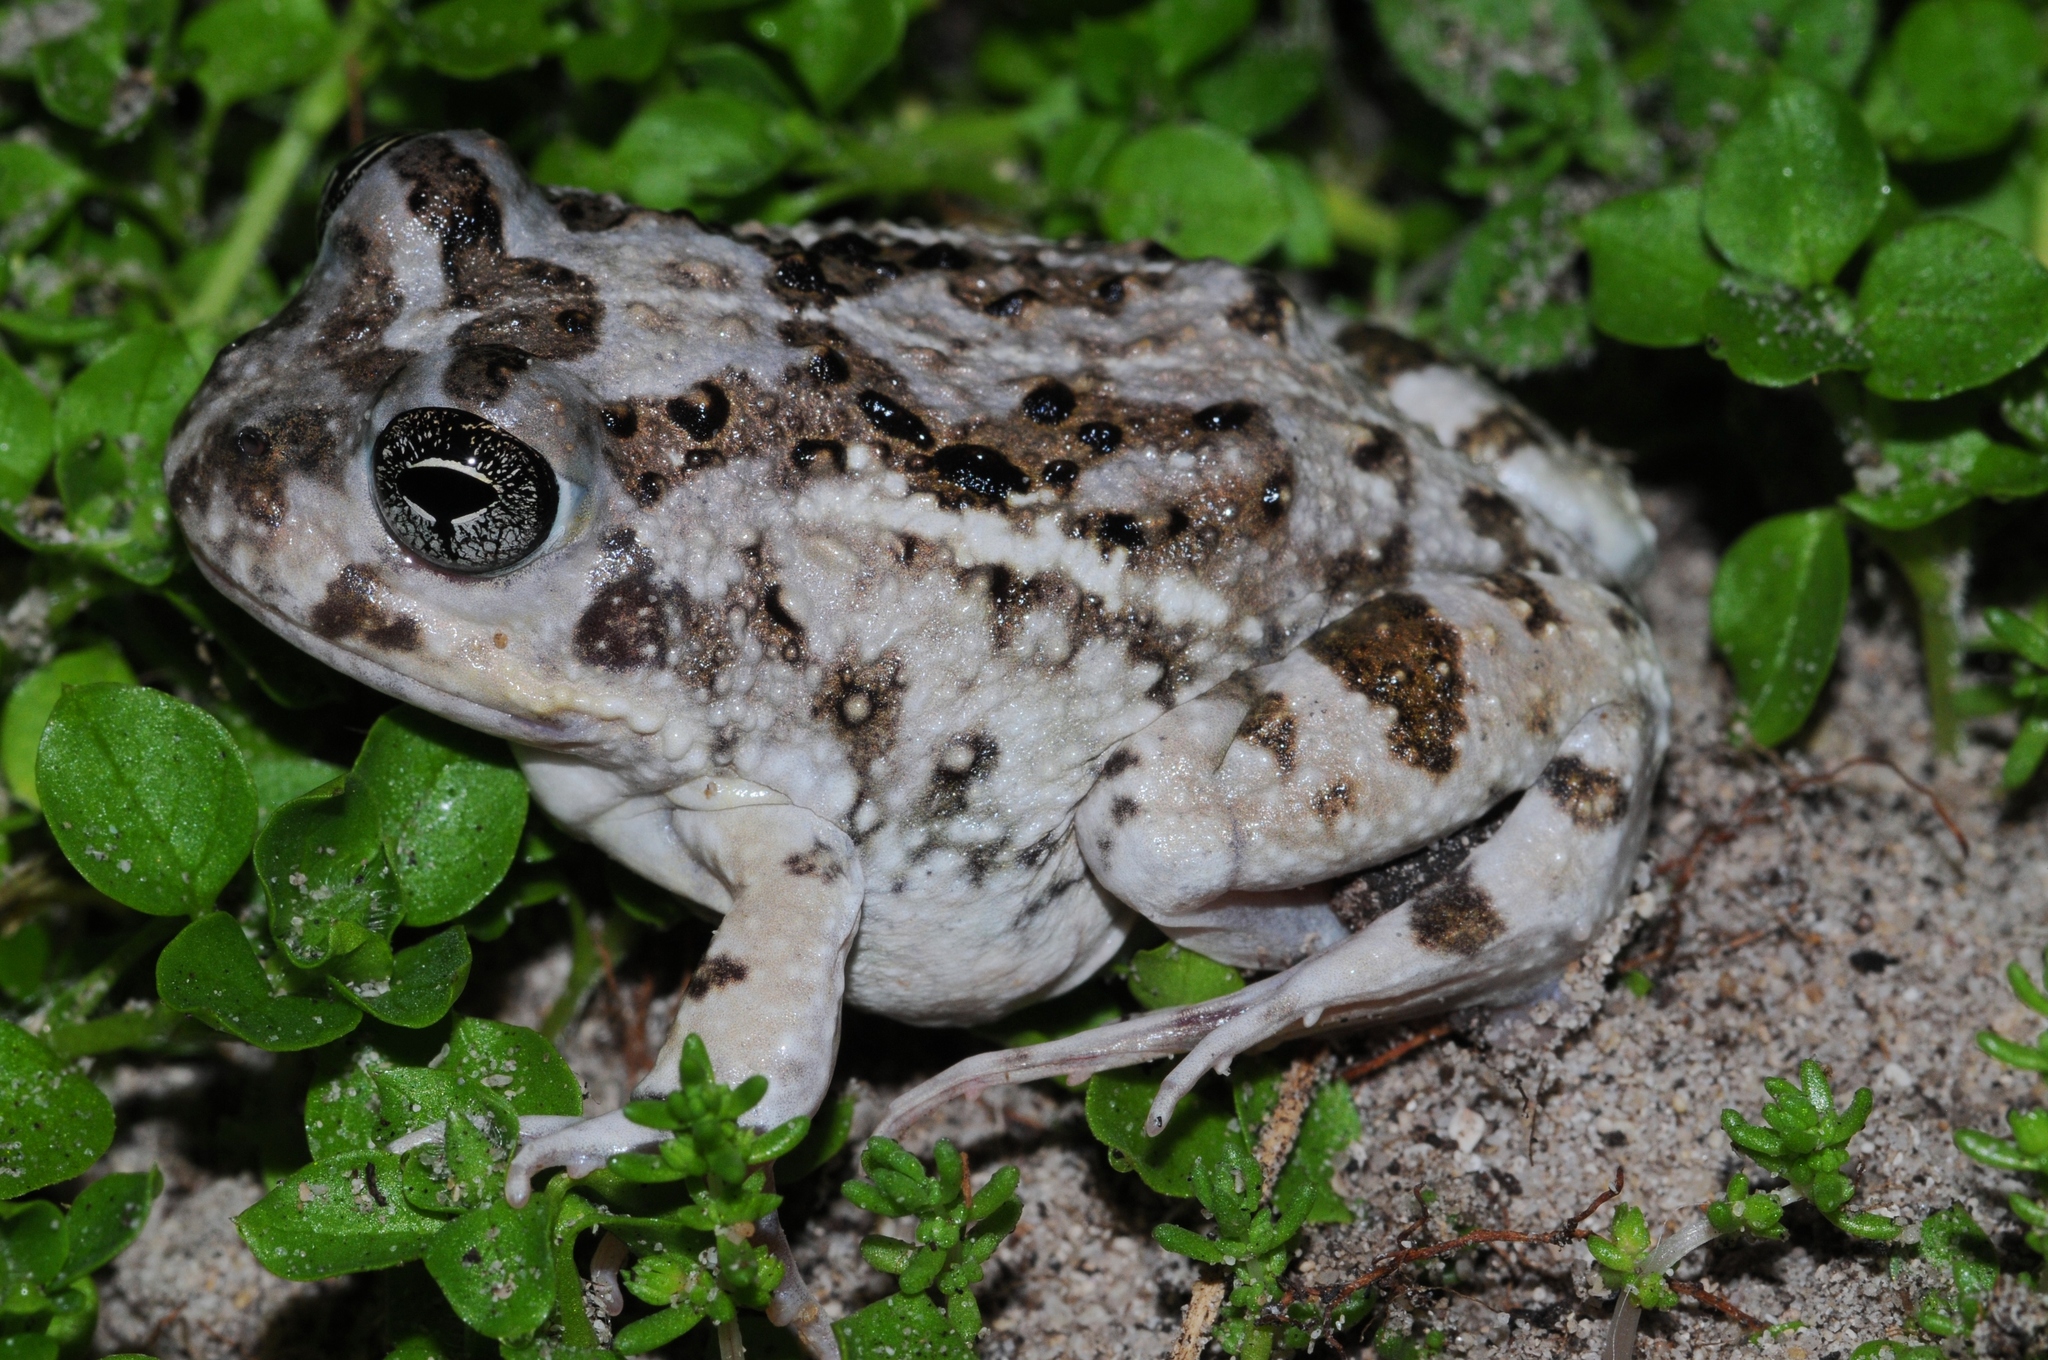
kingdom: Animalia
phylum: Chordata
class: Amphibia
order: Anura
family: Pyxicephalidae
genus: Tomopterna
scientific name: Tomopterna delalandii
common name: Delalande's burrowing bullfrog
